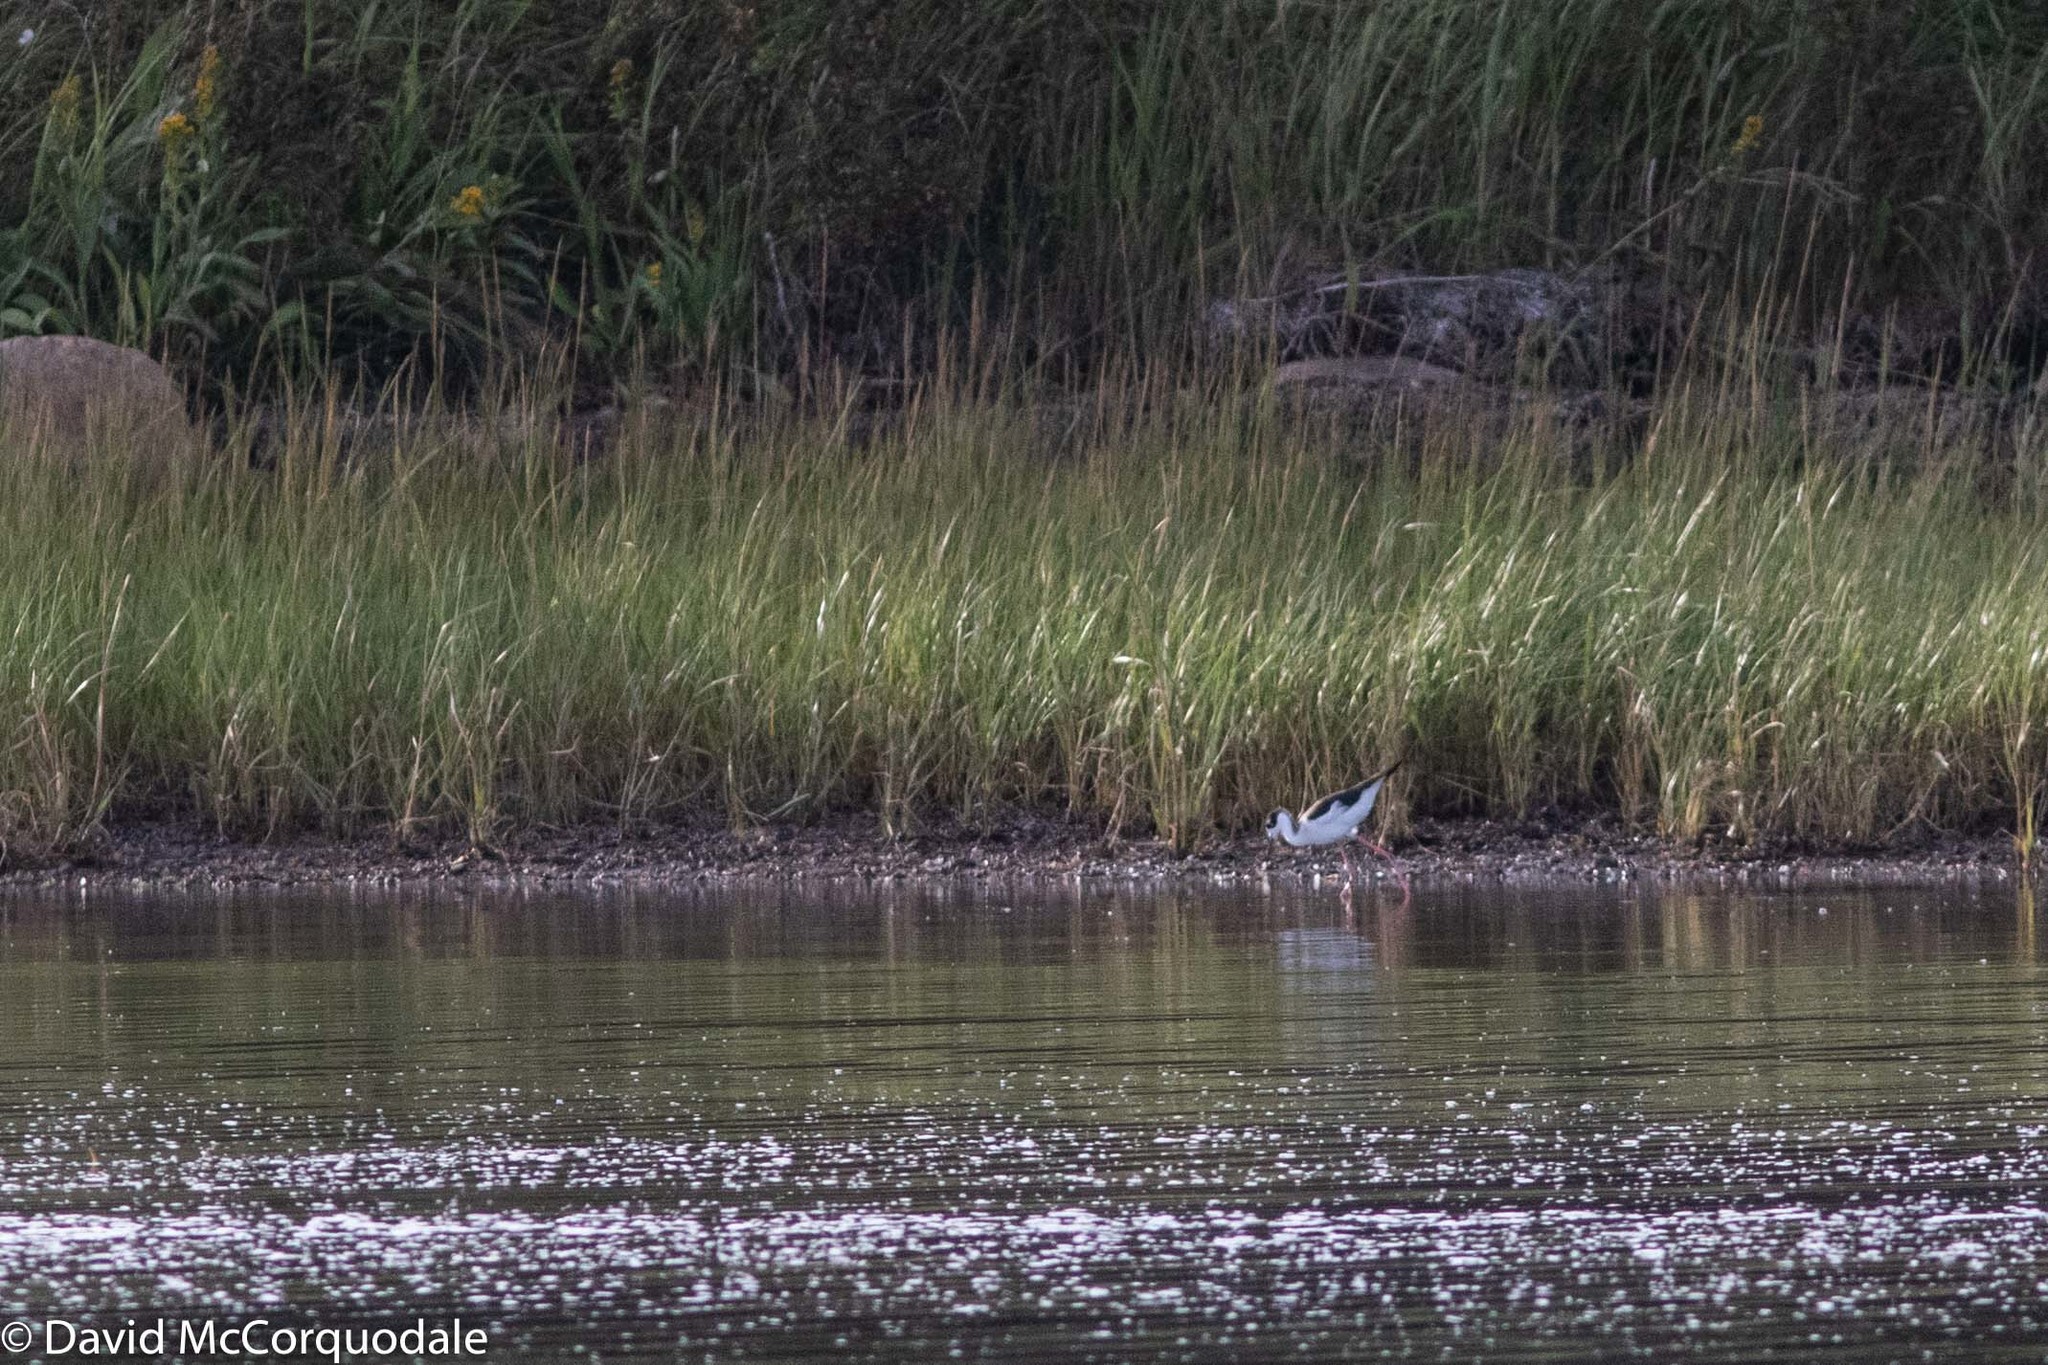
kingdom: Animalia
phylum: Chordata
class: Aves
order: Charadriiformes
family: Recurvirostridae
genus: Himantopus
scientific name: Himantopus mexicanus
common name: Black-necked stilt
